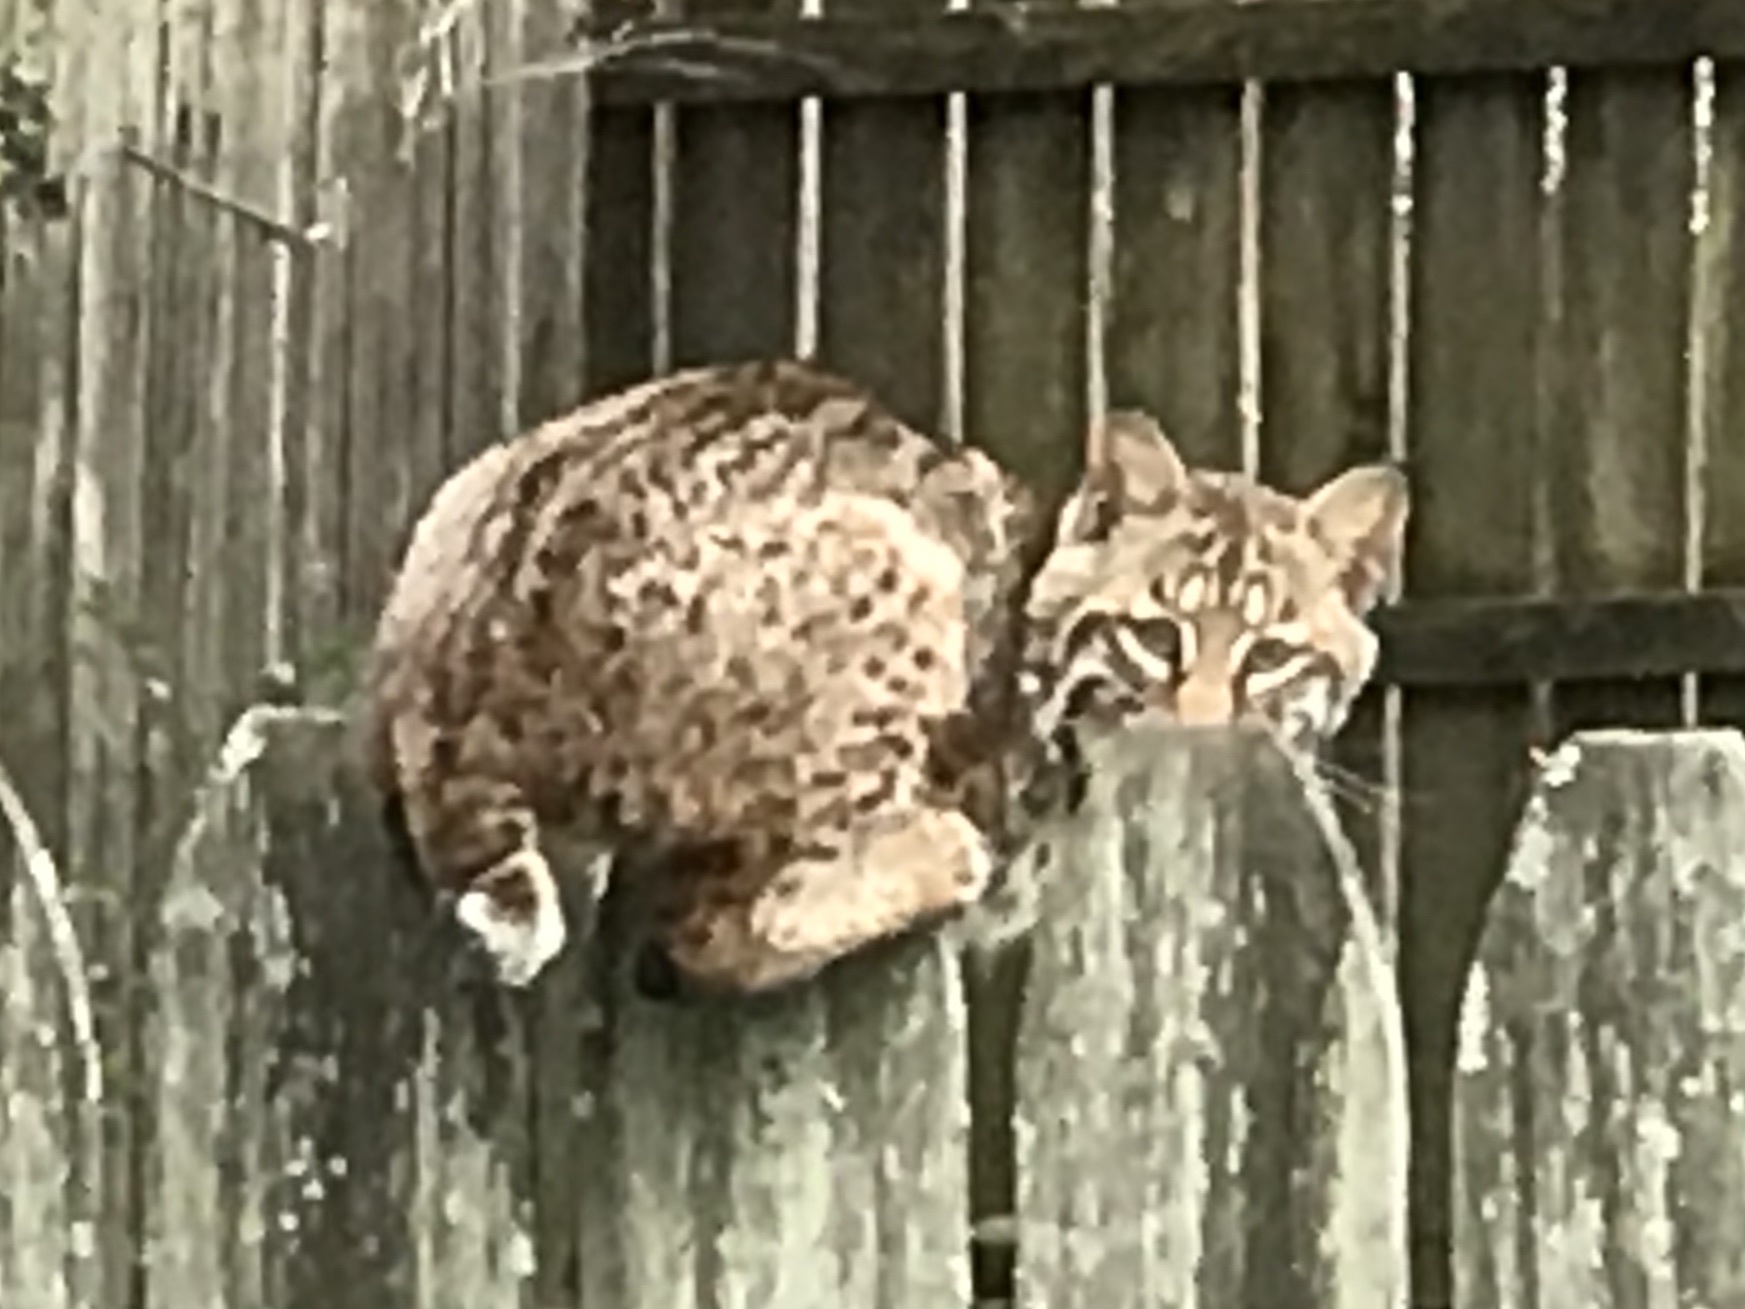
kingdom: Animalia
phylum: Chordata
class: Mammalia
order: Carnivora
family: Felidae
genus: Lynx
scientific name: Lynx rufus
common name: Bobcat
